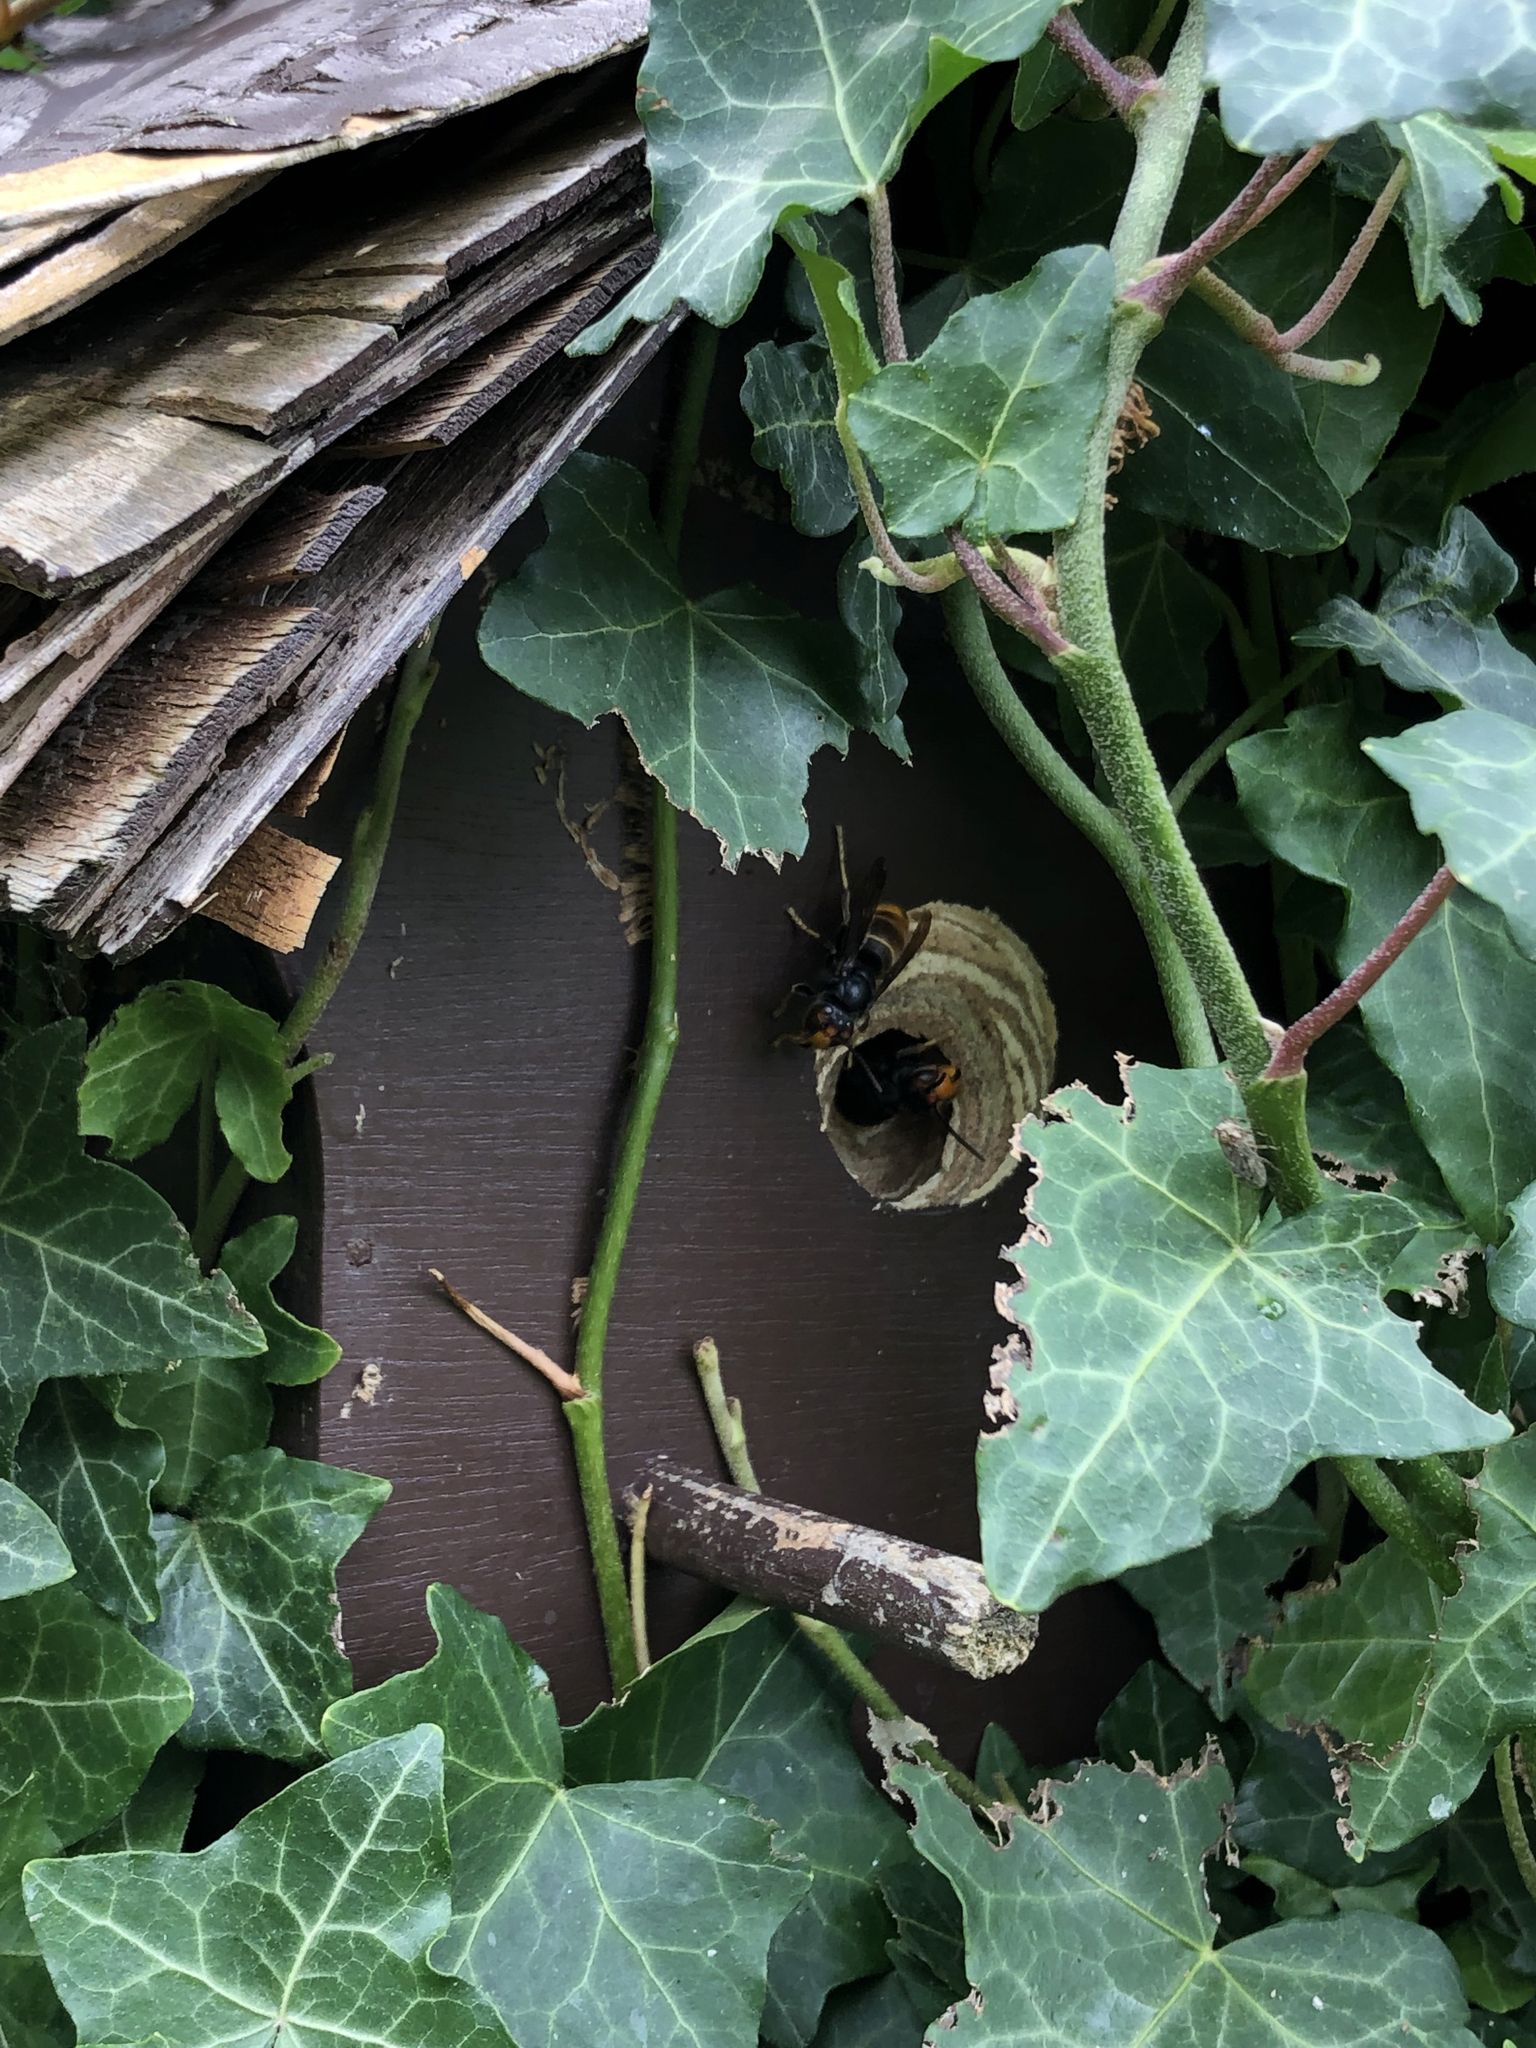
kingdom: Animalia
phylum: Arthropoda
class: Insecta
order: Hymenoptera
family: Vespidae
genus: Vespa
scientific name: Vespa velutina
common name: Asian hornet
